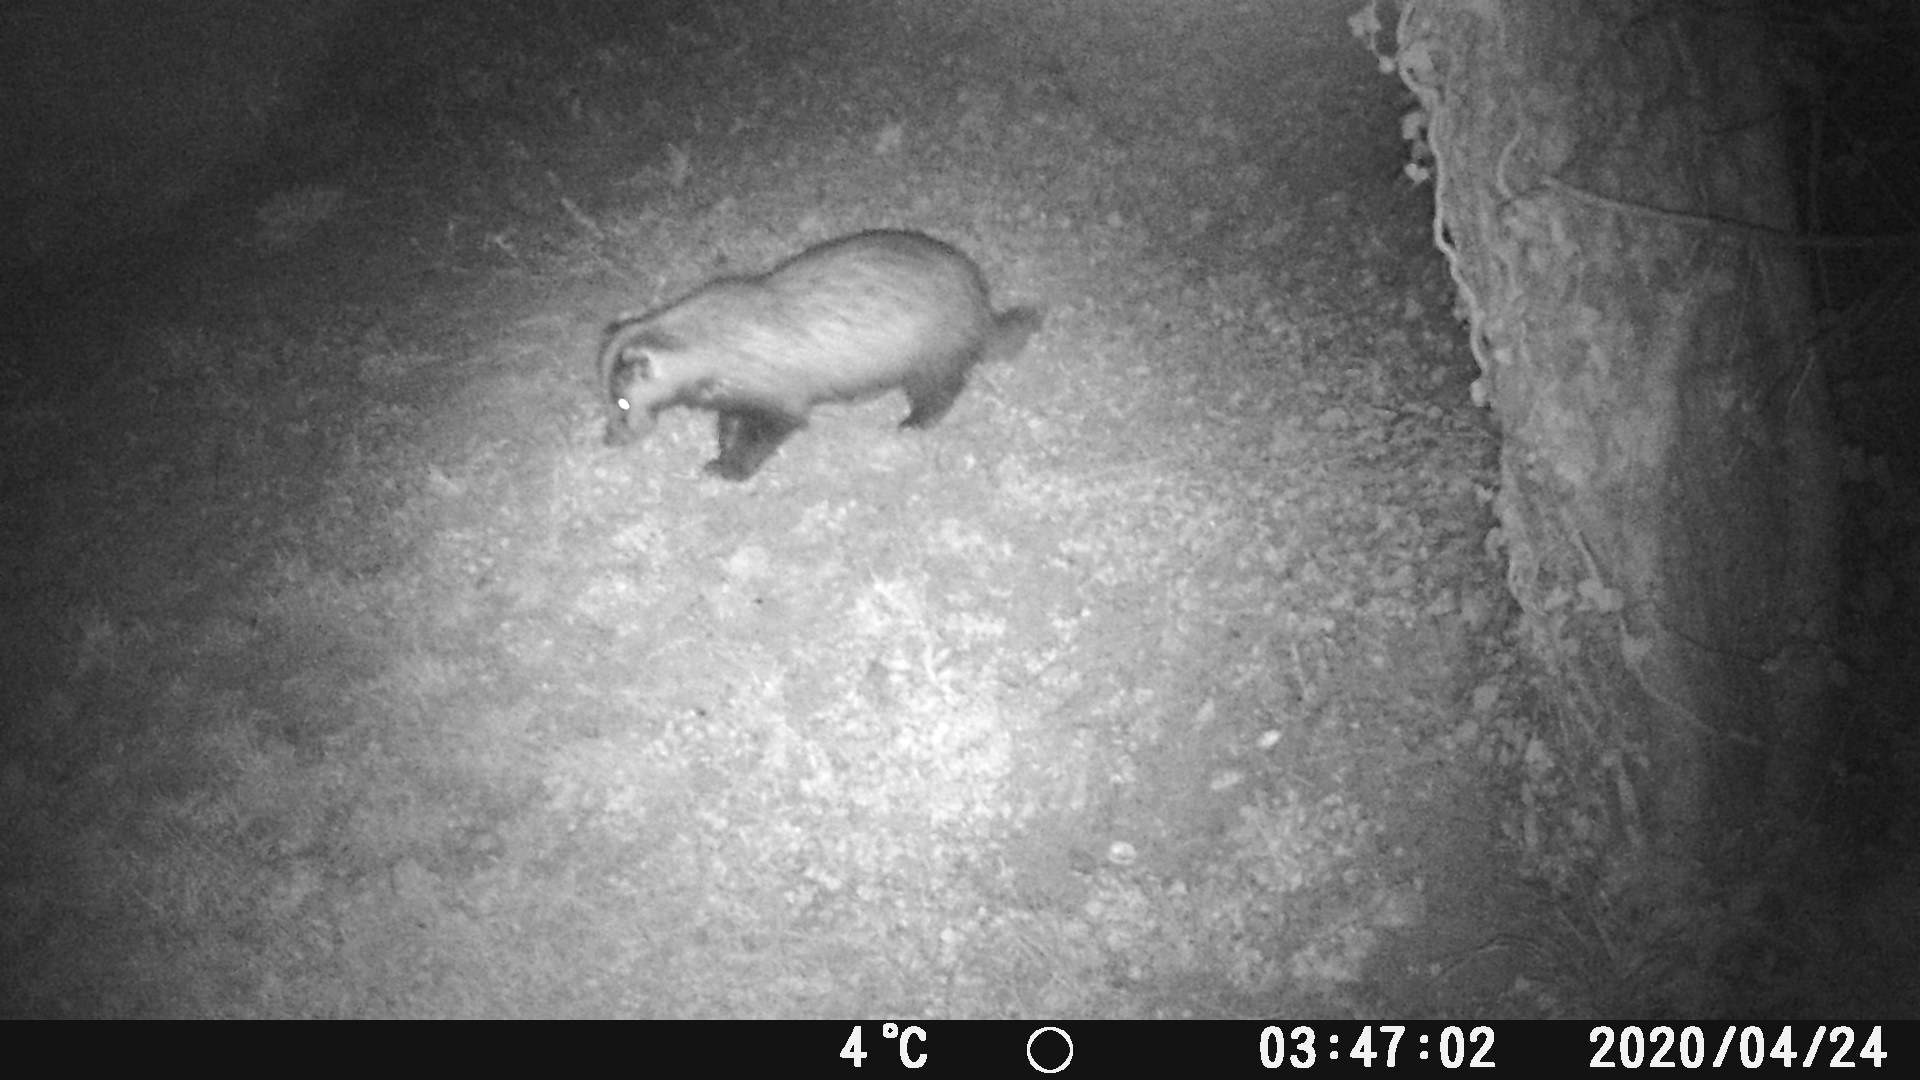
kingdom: Animalia
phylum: Chordata
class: Mammalia
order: Carnivora
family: Mustelidae
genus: Meles
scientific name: Meles meles
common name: Eurasian badger
